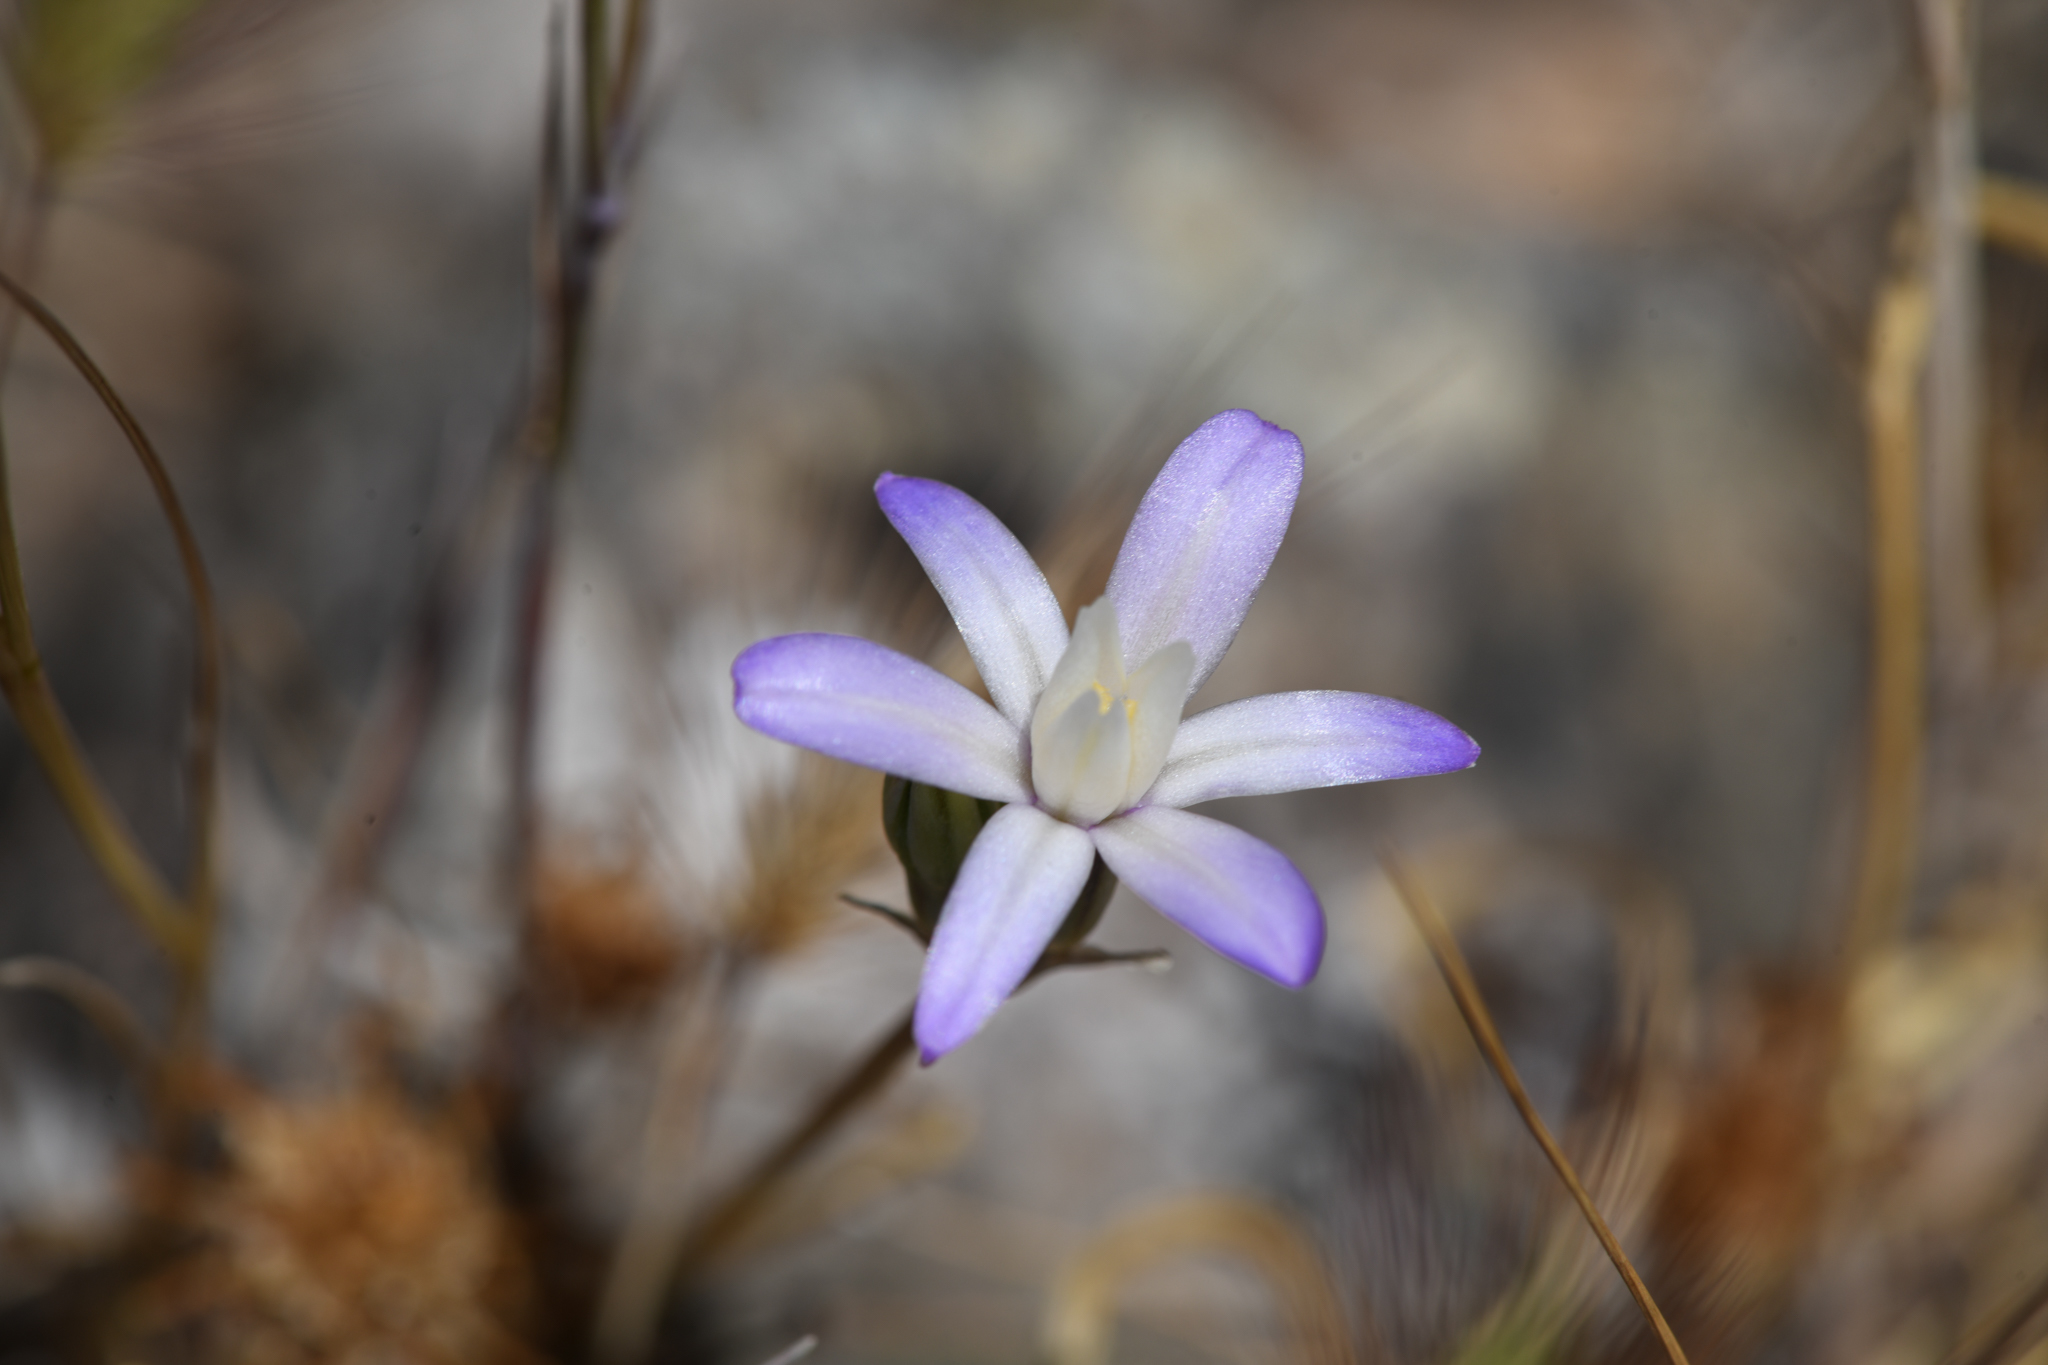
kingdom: Plantae
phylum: Tracheophyta
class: Liliopsida
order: Asparagales
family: Asparagaceae
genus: Brodiaea
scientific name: Brodiaea pallida
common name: Chinese camp brodiaea
